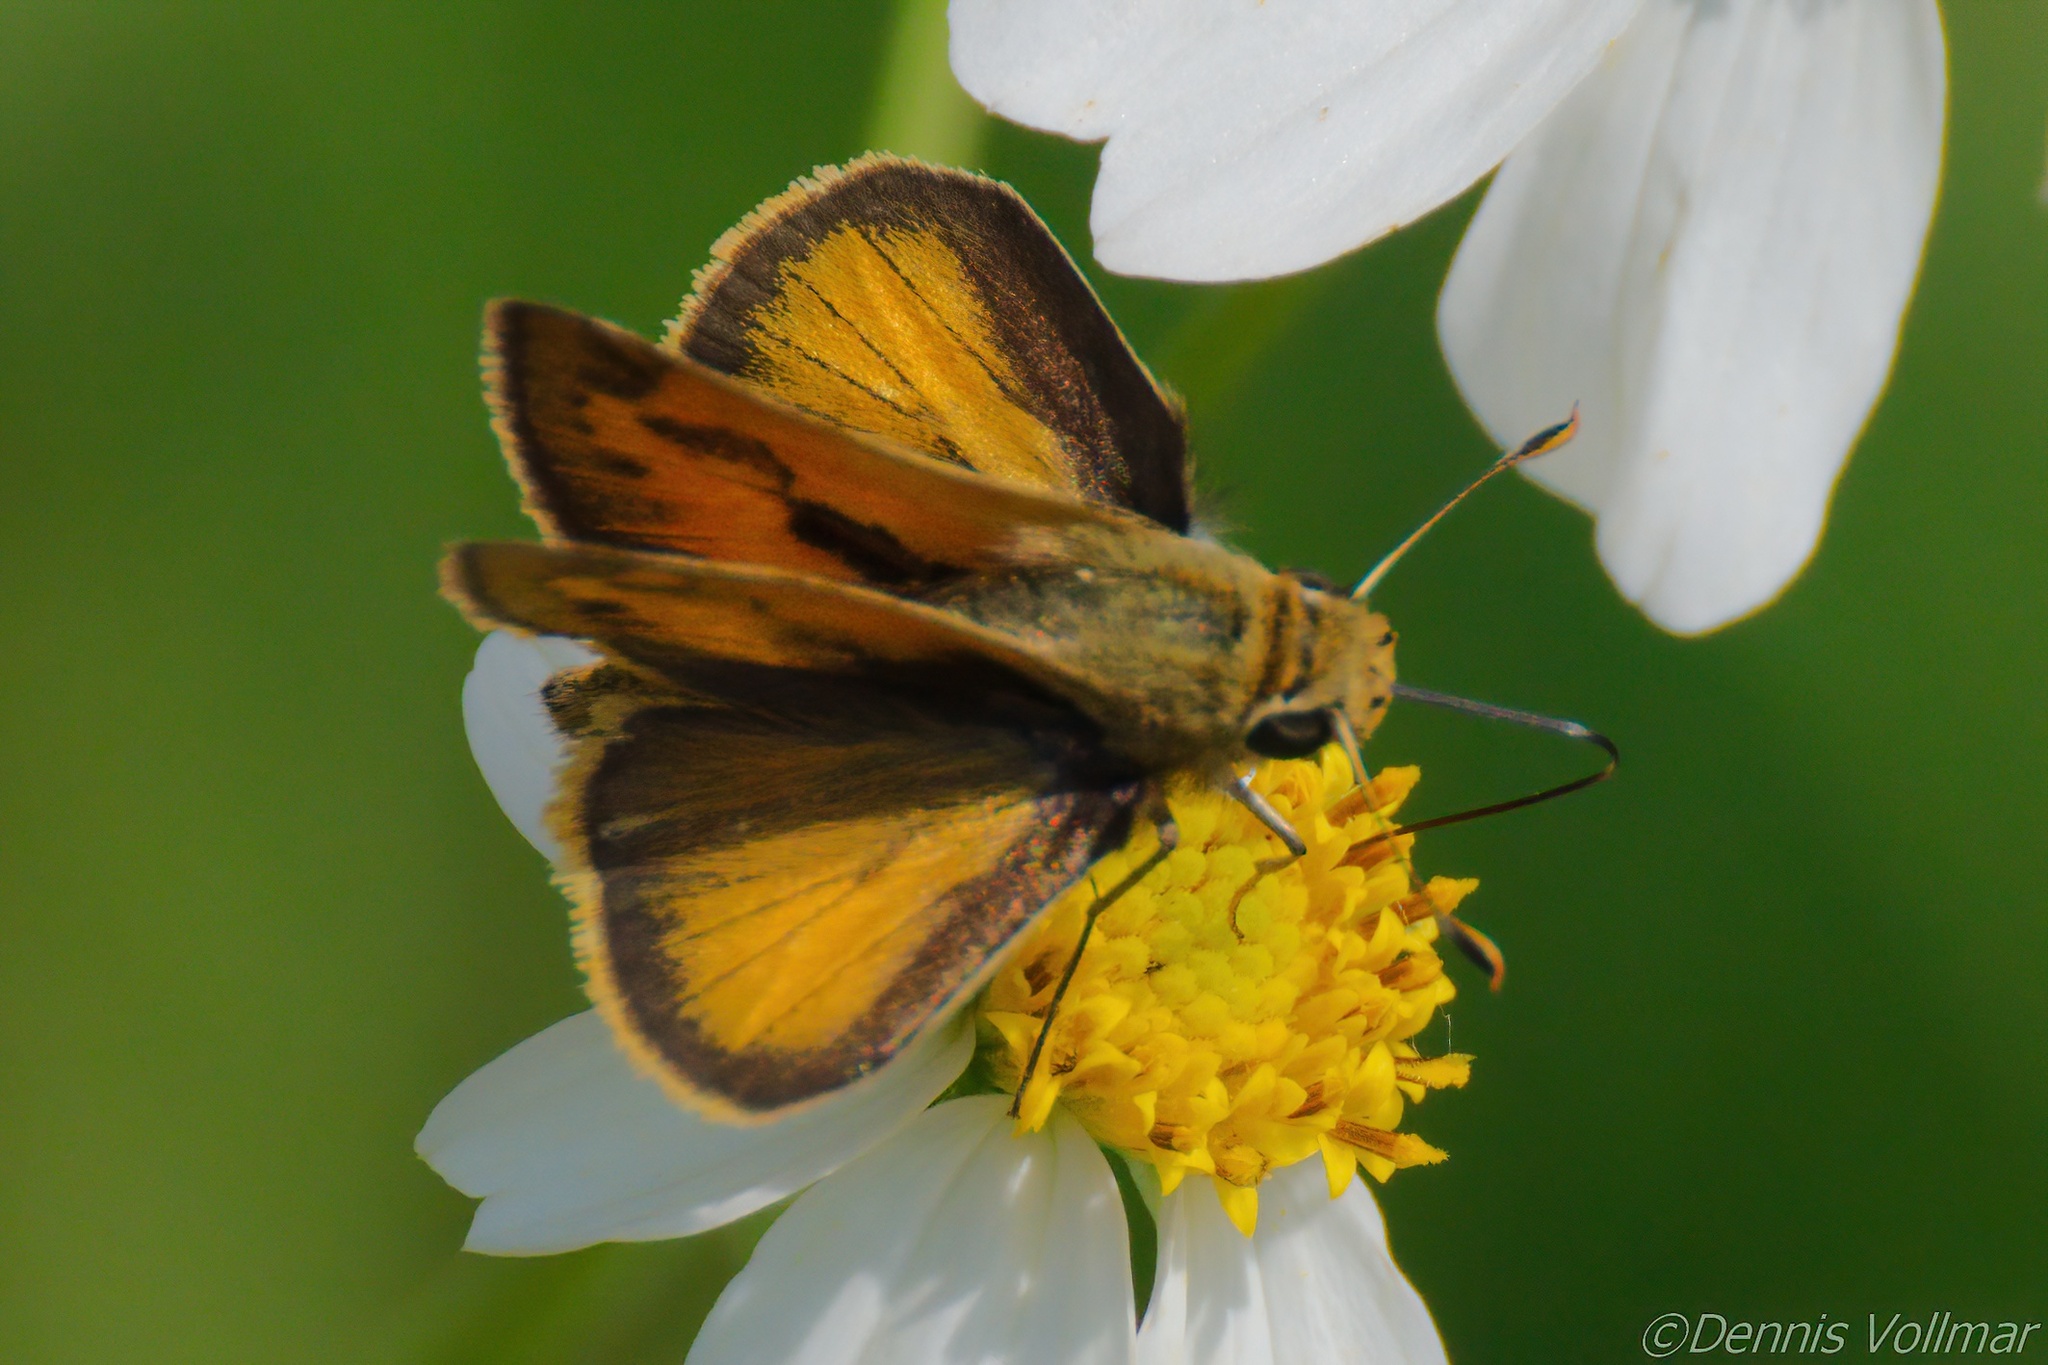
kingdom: Animalia
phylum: Arthropoda
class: Insecta
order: Lepidoptera
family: Hesperiidae
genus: Polites
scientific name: Polites vibex
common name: Whirlabout
